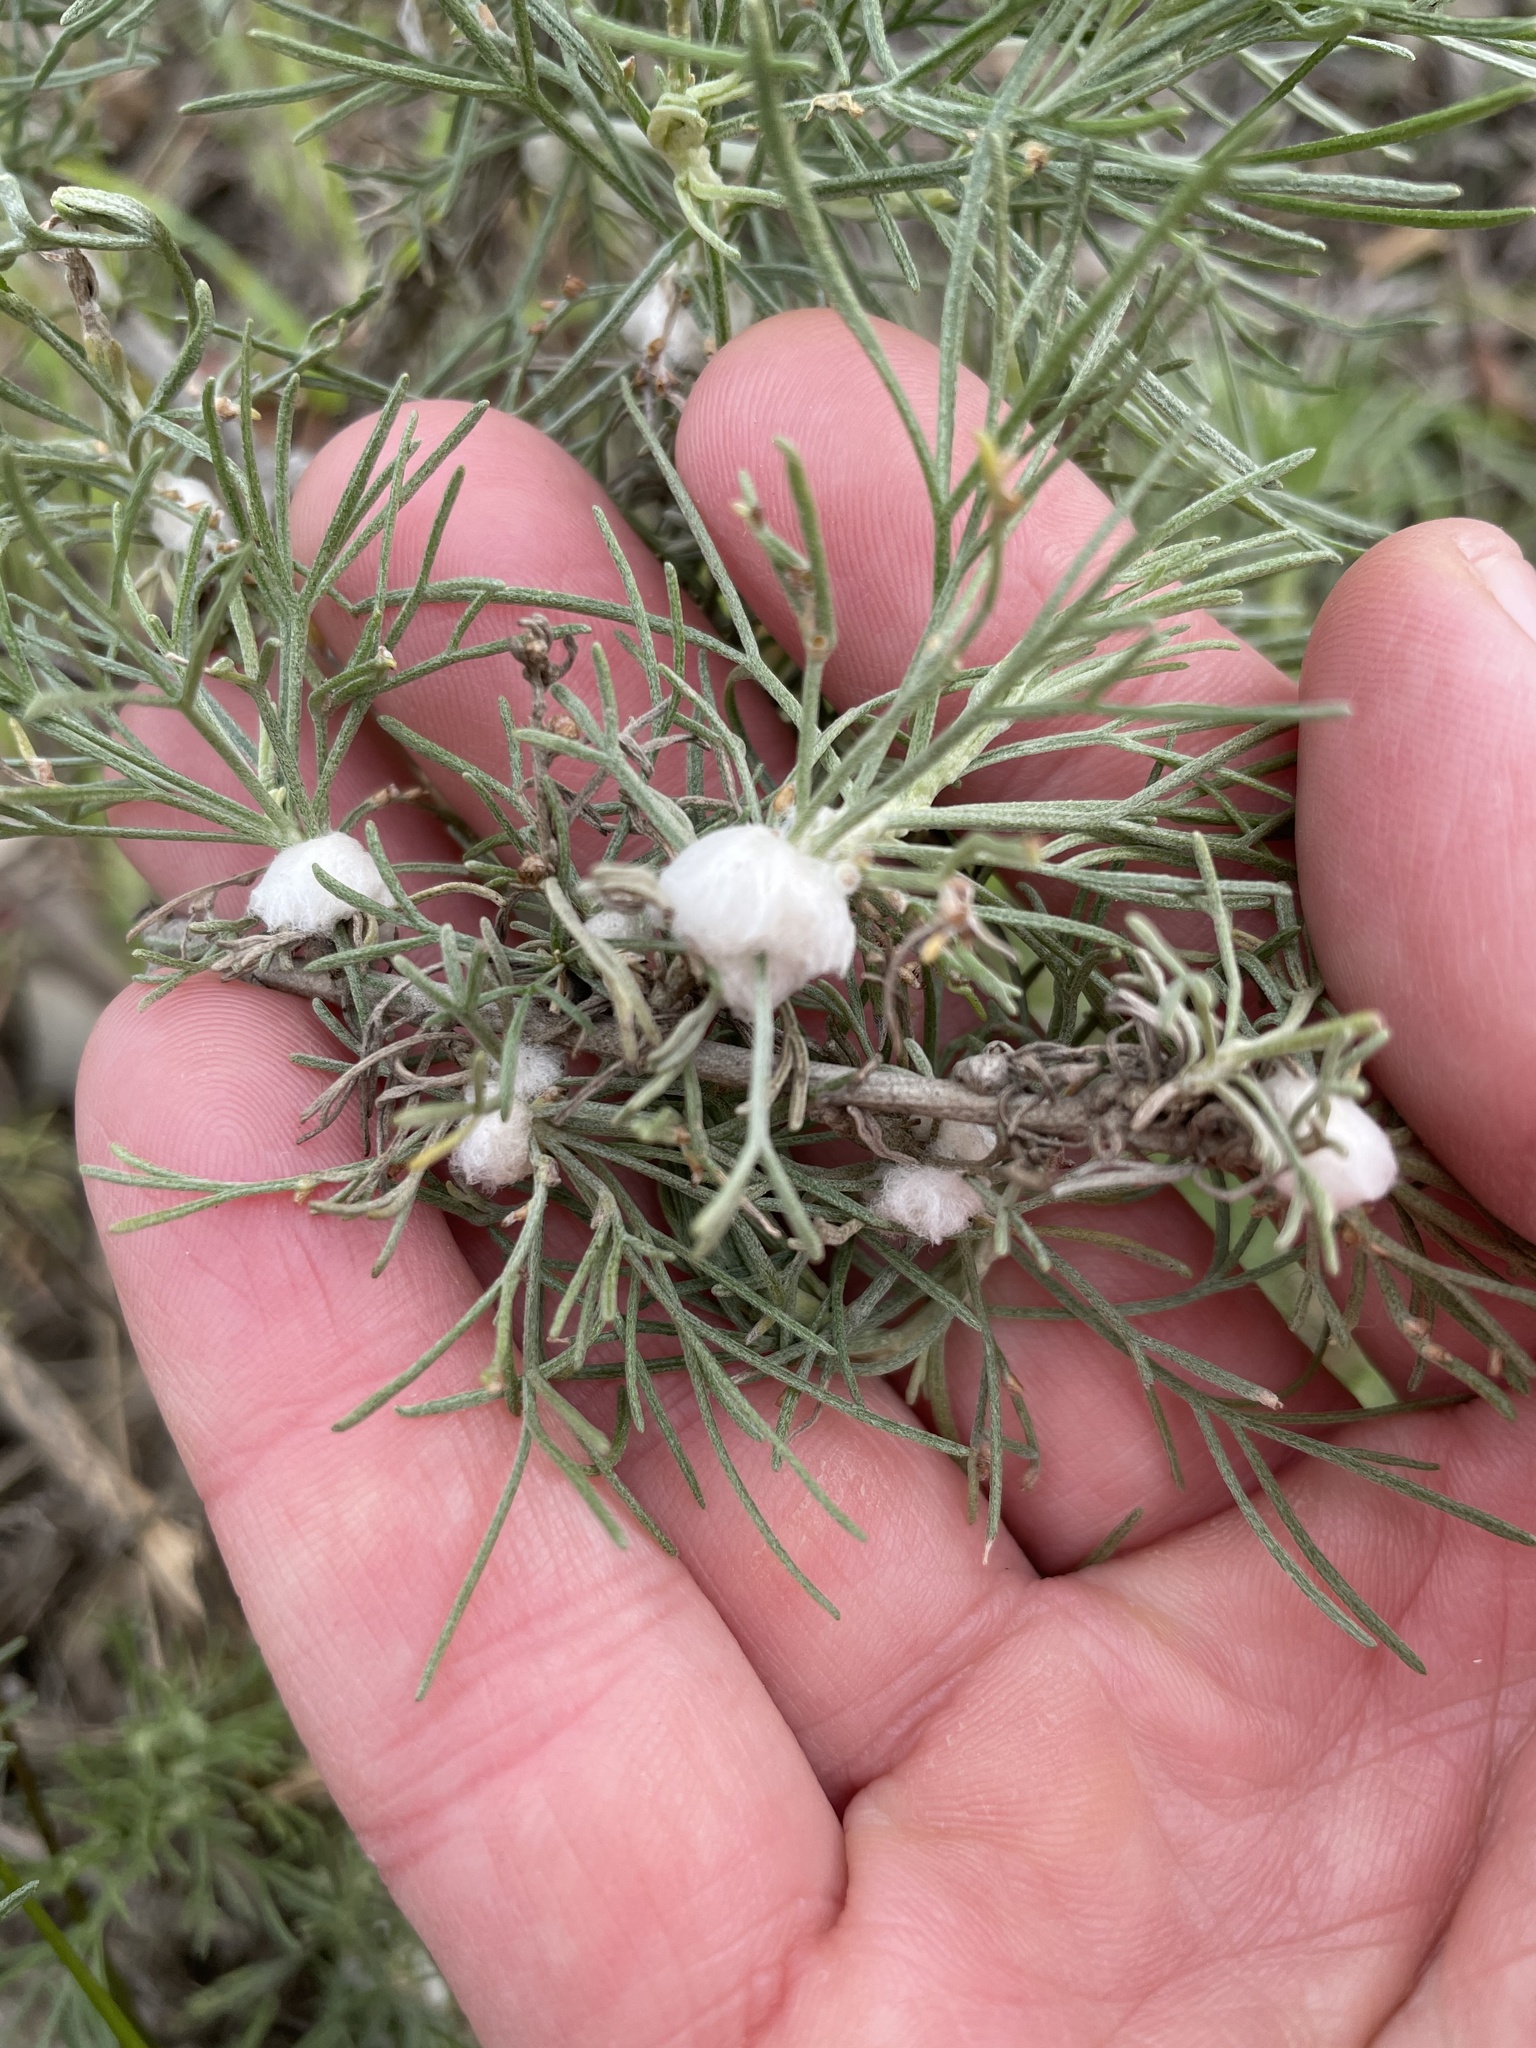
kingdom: Animalia
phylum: Arthropoda
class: Insecta
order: Diptera
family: Cecidomyiidae
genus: Rhopalomyia
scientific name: Rhopalomyia floccosa
